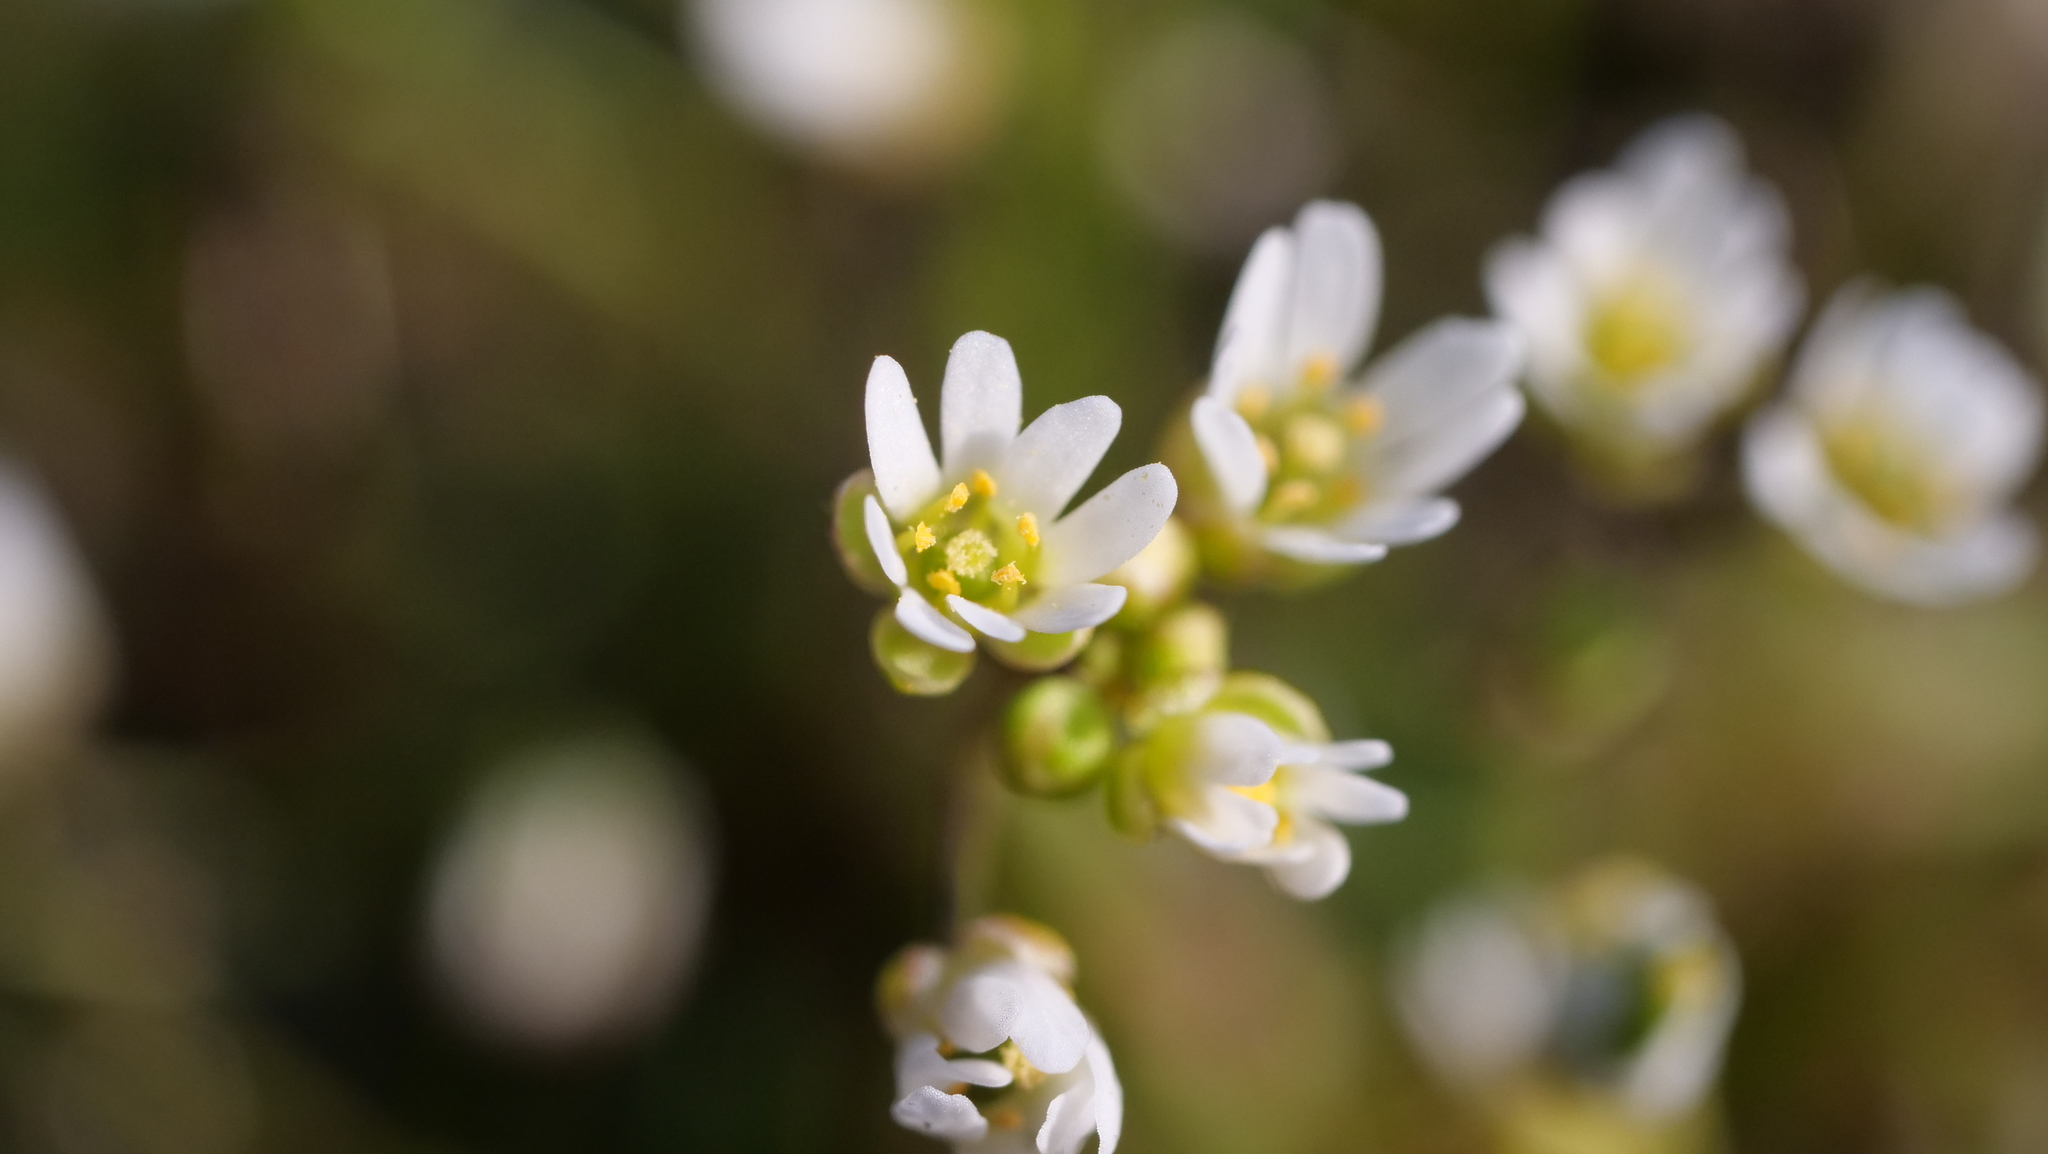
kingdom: Plantae
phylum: Tracheophyta
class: Magnoliopsida
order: Brassicales
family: Brassicaceae
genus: Draba
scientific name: Draba verna
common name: Spring draba
